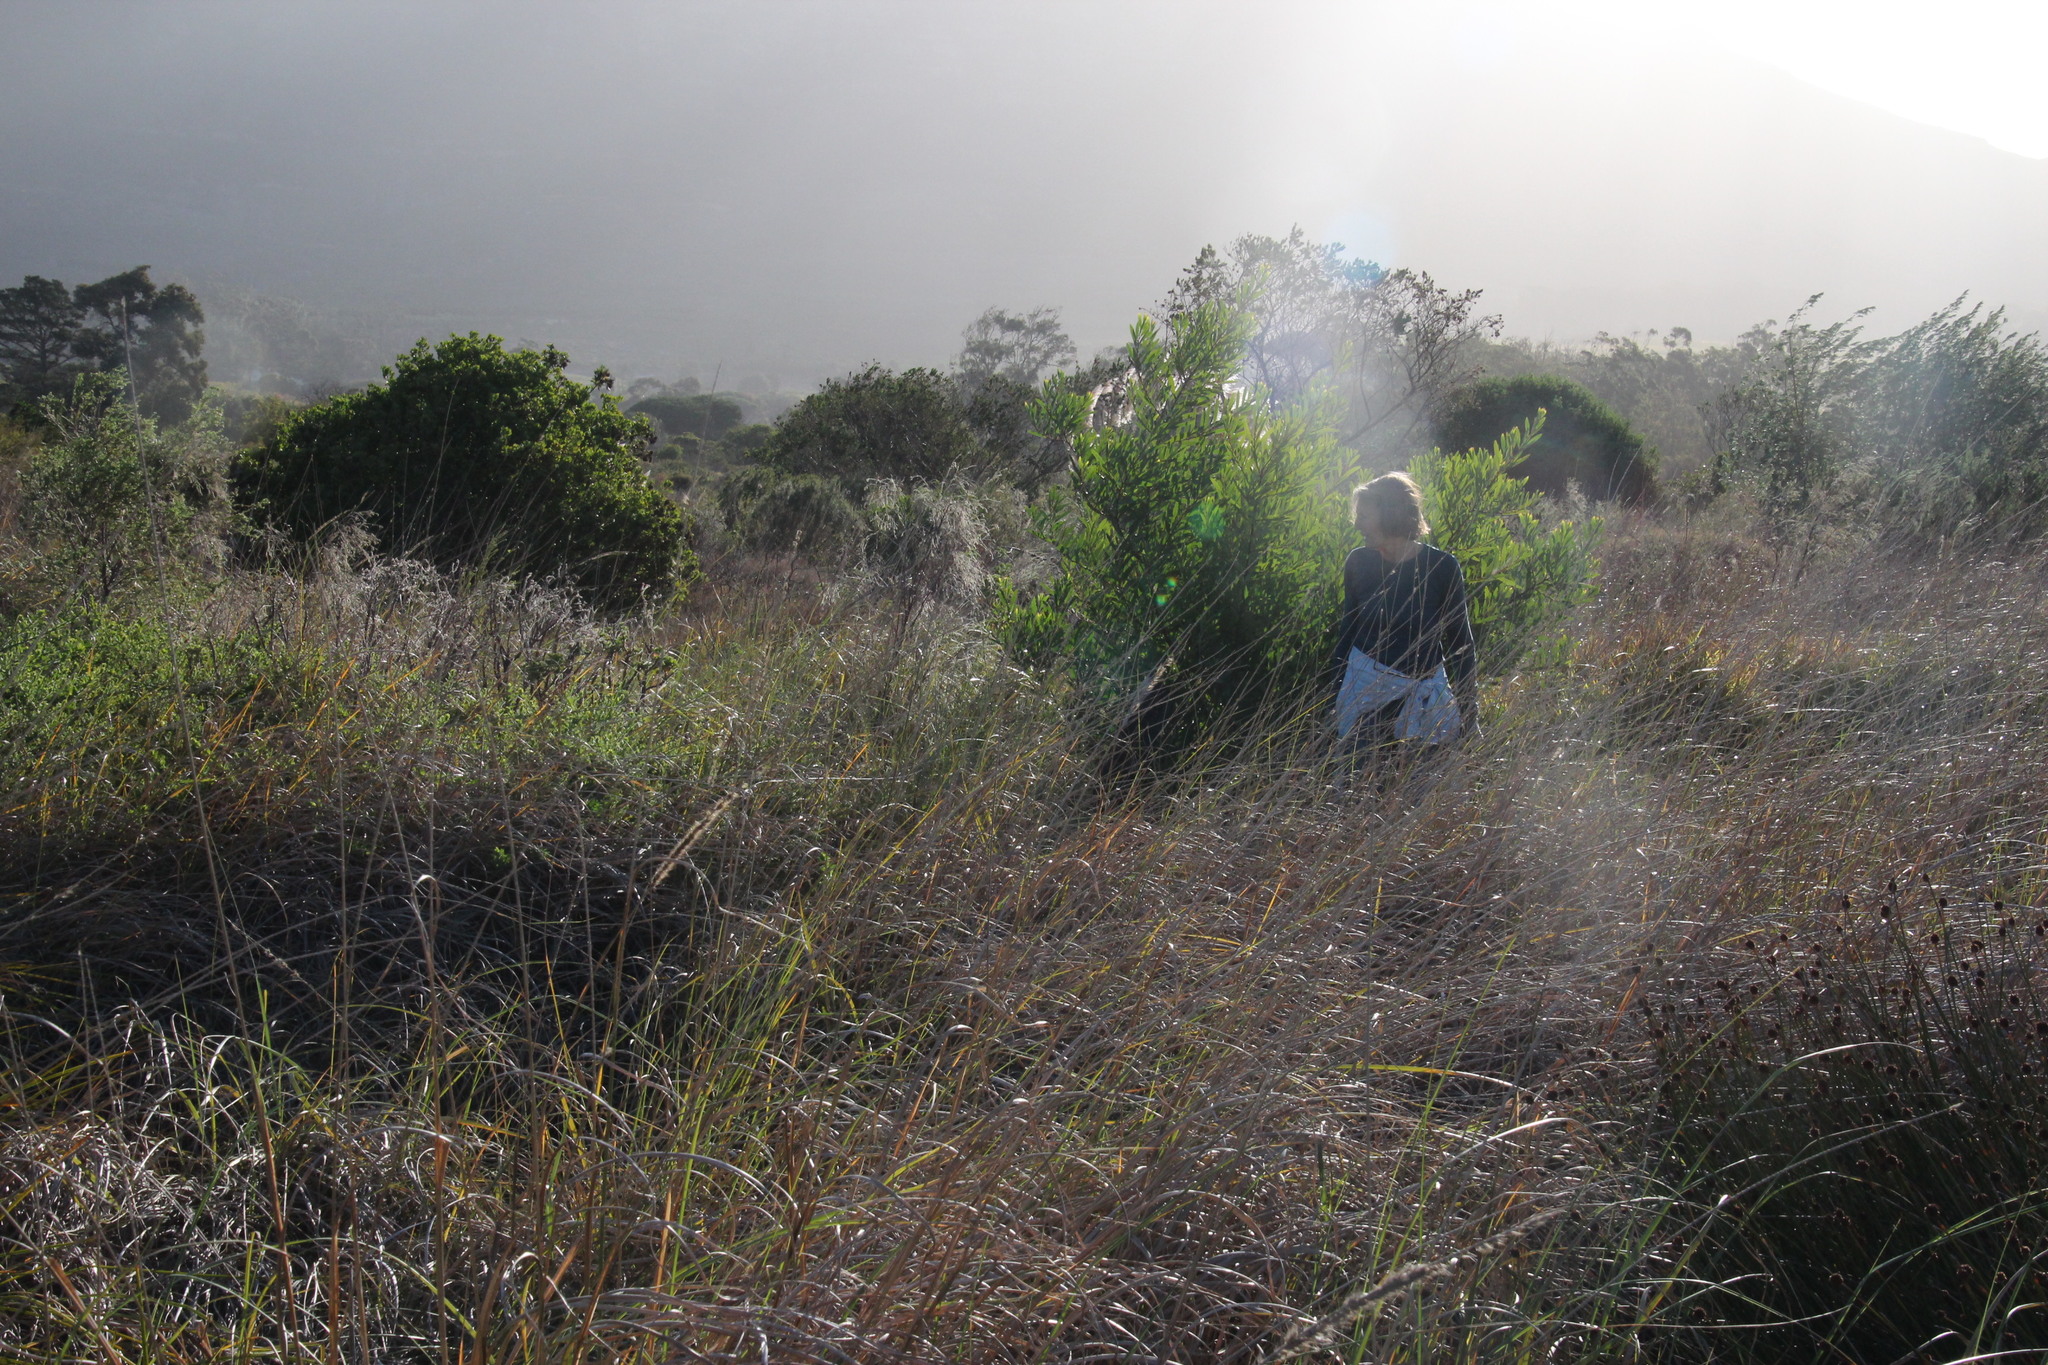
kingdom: Plantae
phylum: Tracheophyta
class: Magnoliopsida
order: Fabales
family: Fabaceae
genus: Acacia
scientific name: Acacia longifolia
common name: Sydney golden wattle
